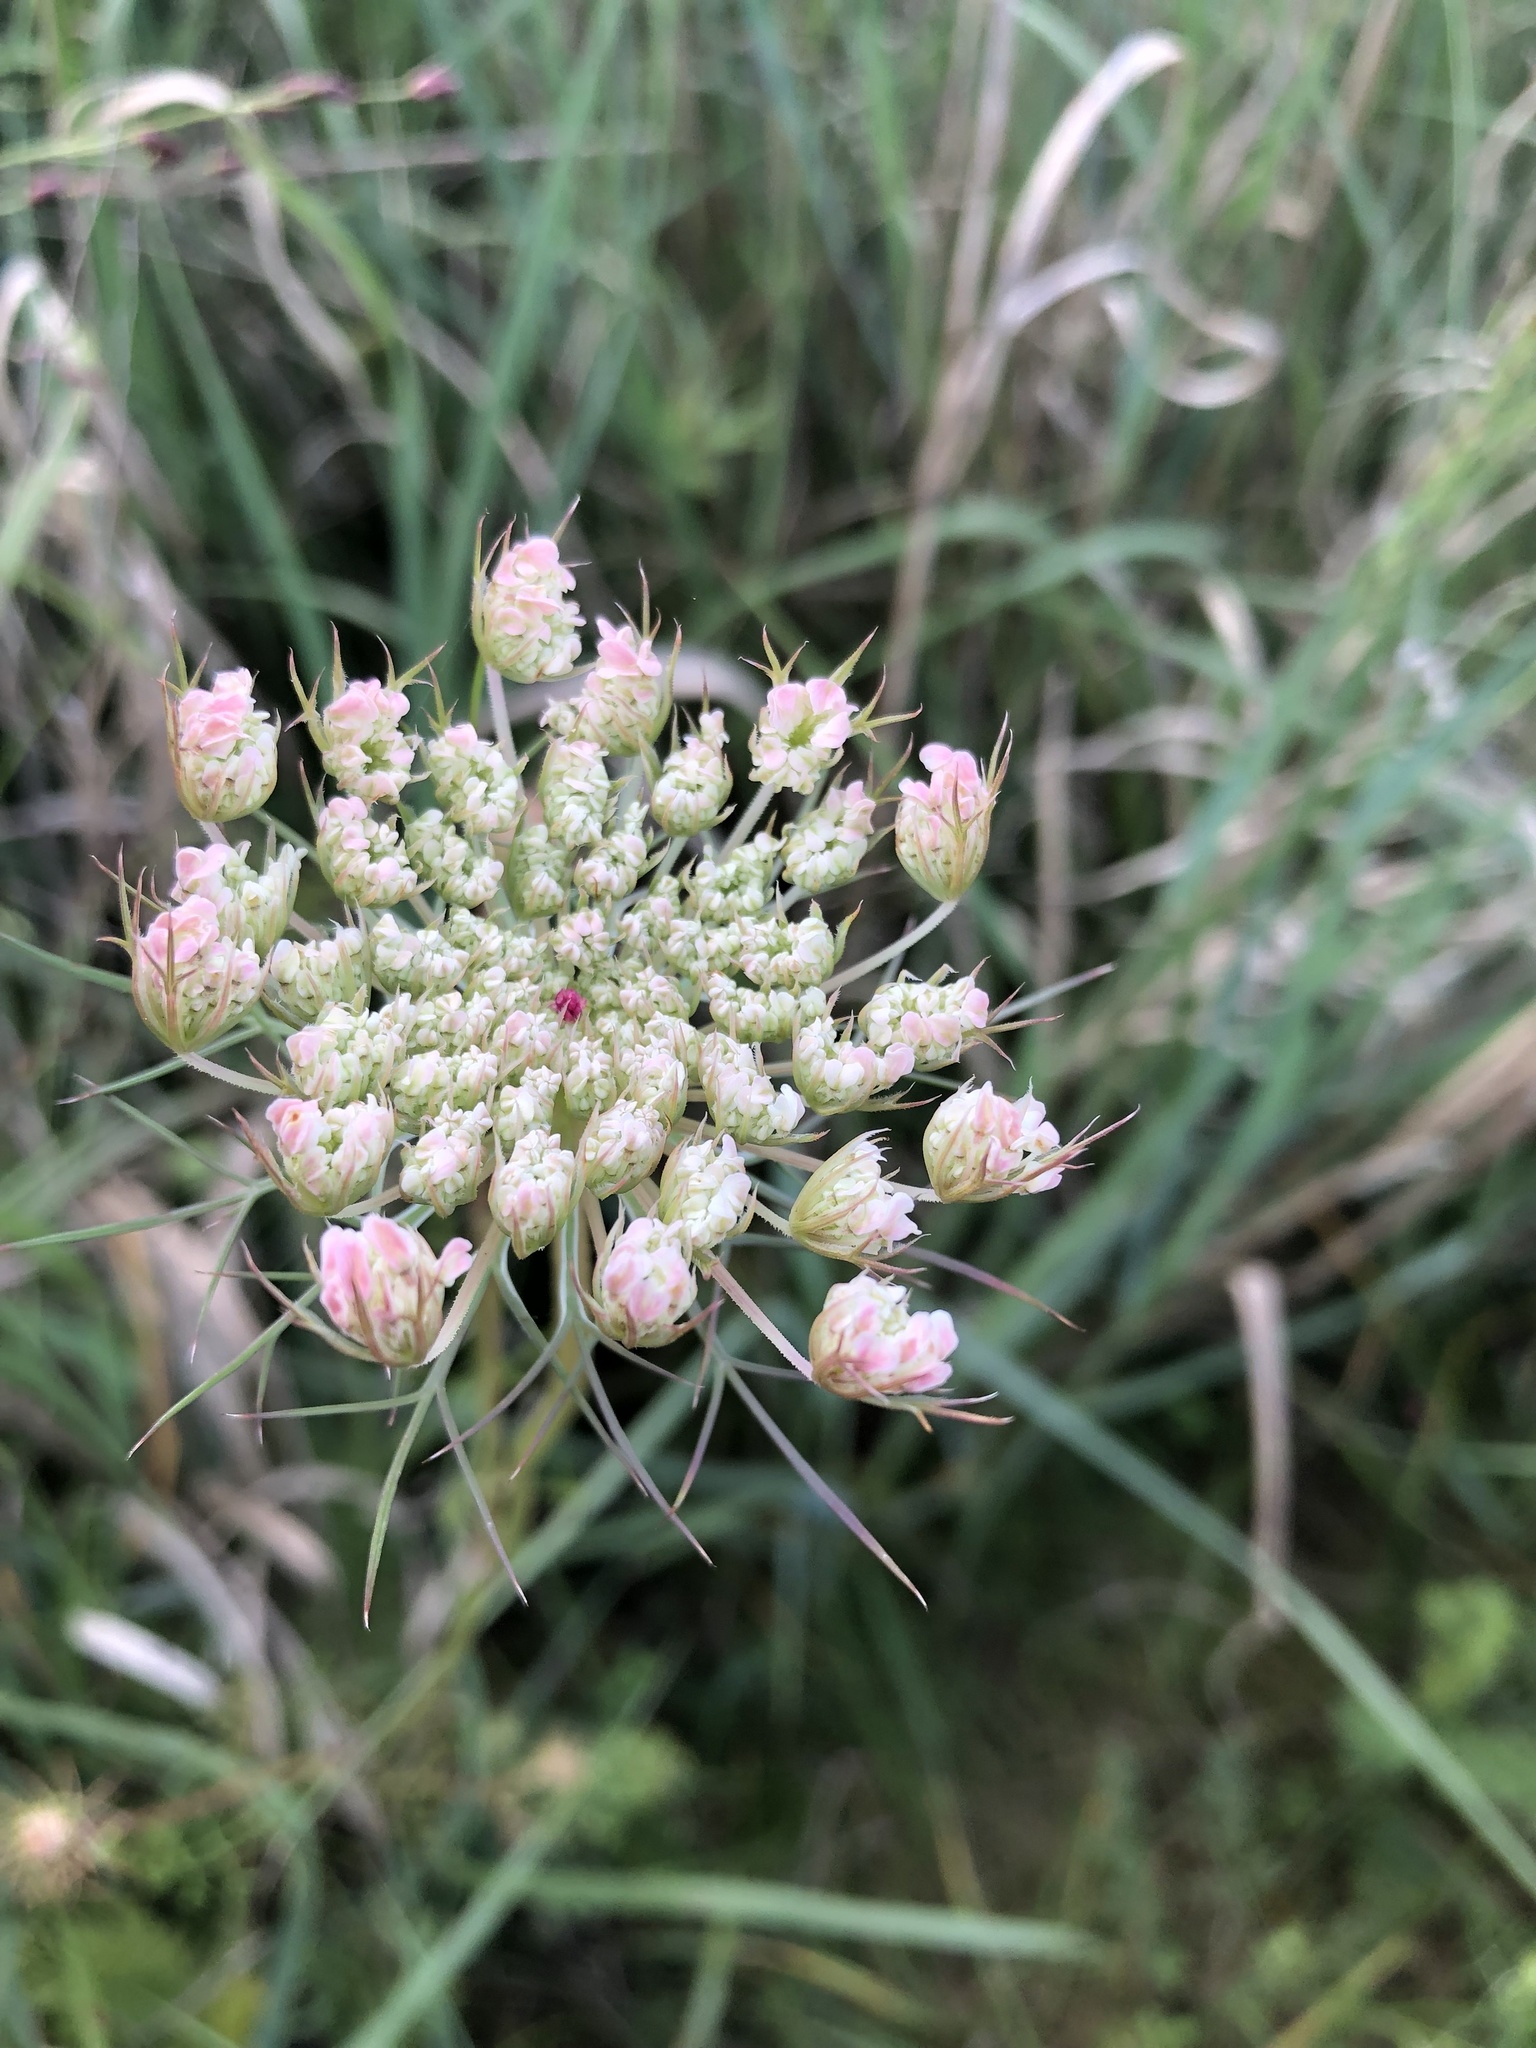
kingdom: Plantae
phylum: Tracheophyta
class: Magnoliopsida
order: Apiales
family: Apiaceae
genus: Daucus
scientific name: Daucus carota
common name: Wild carrot
